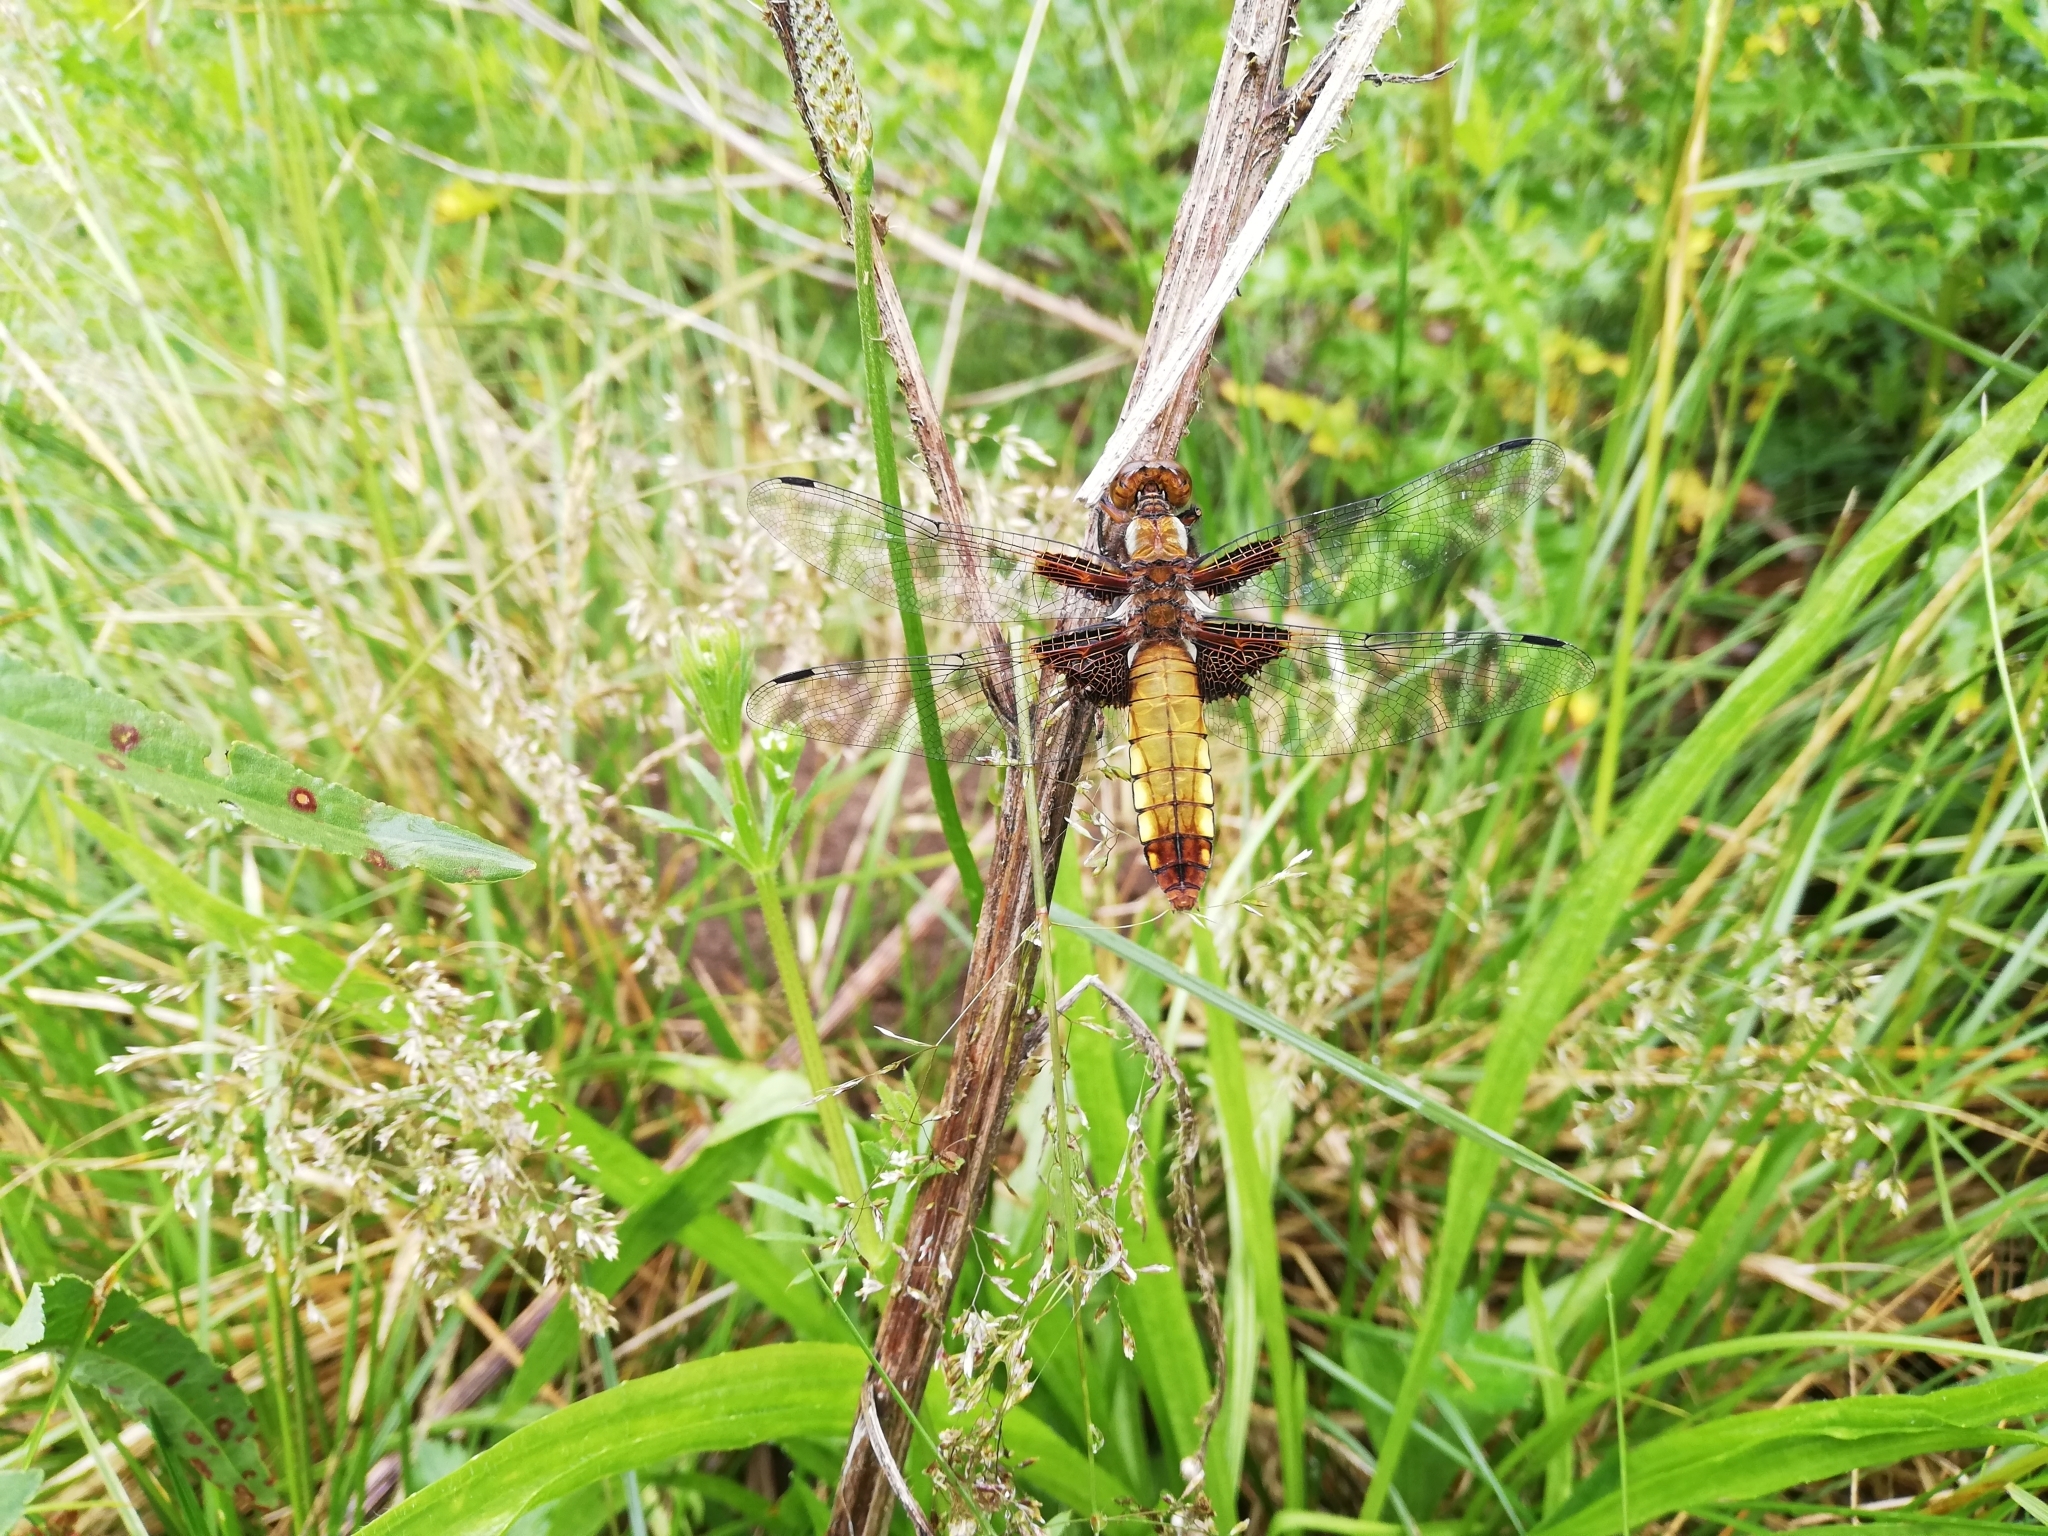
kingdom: Animalia
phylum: Arthropoda
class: Insecta
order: Odonata
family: Libellulidae
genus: Libellula
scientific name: Libellula depressa
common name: Broad-bodied chaser
